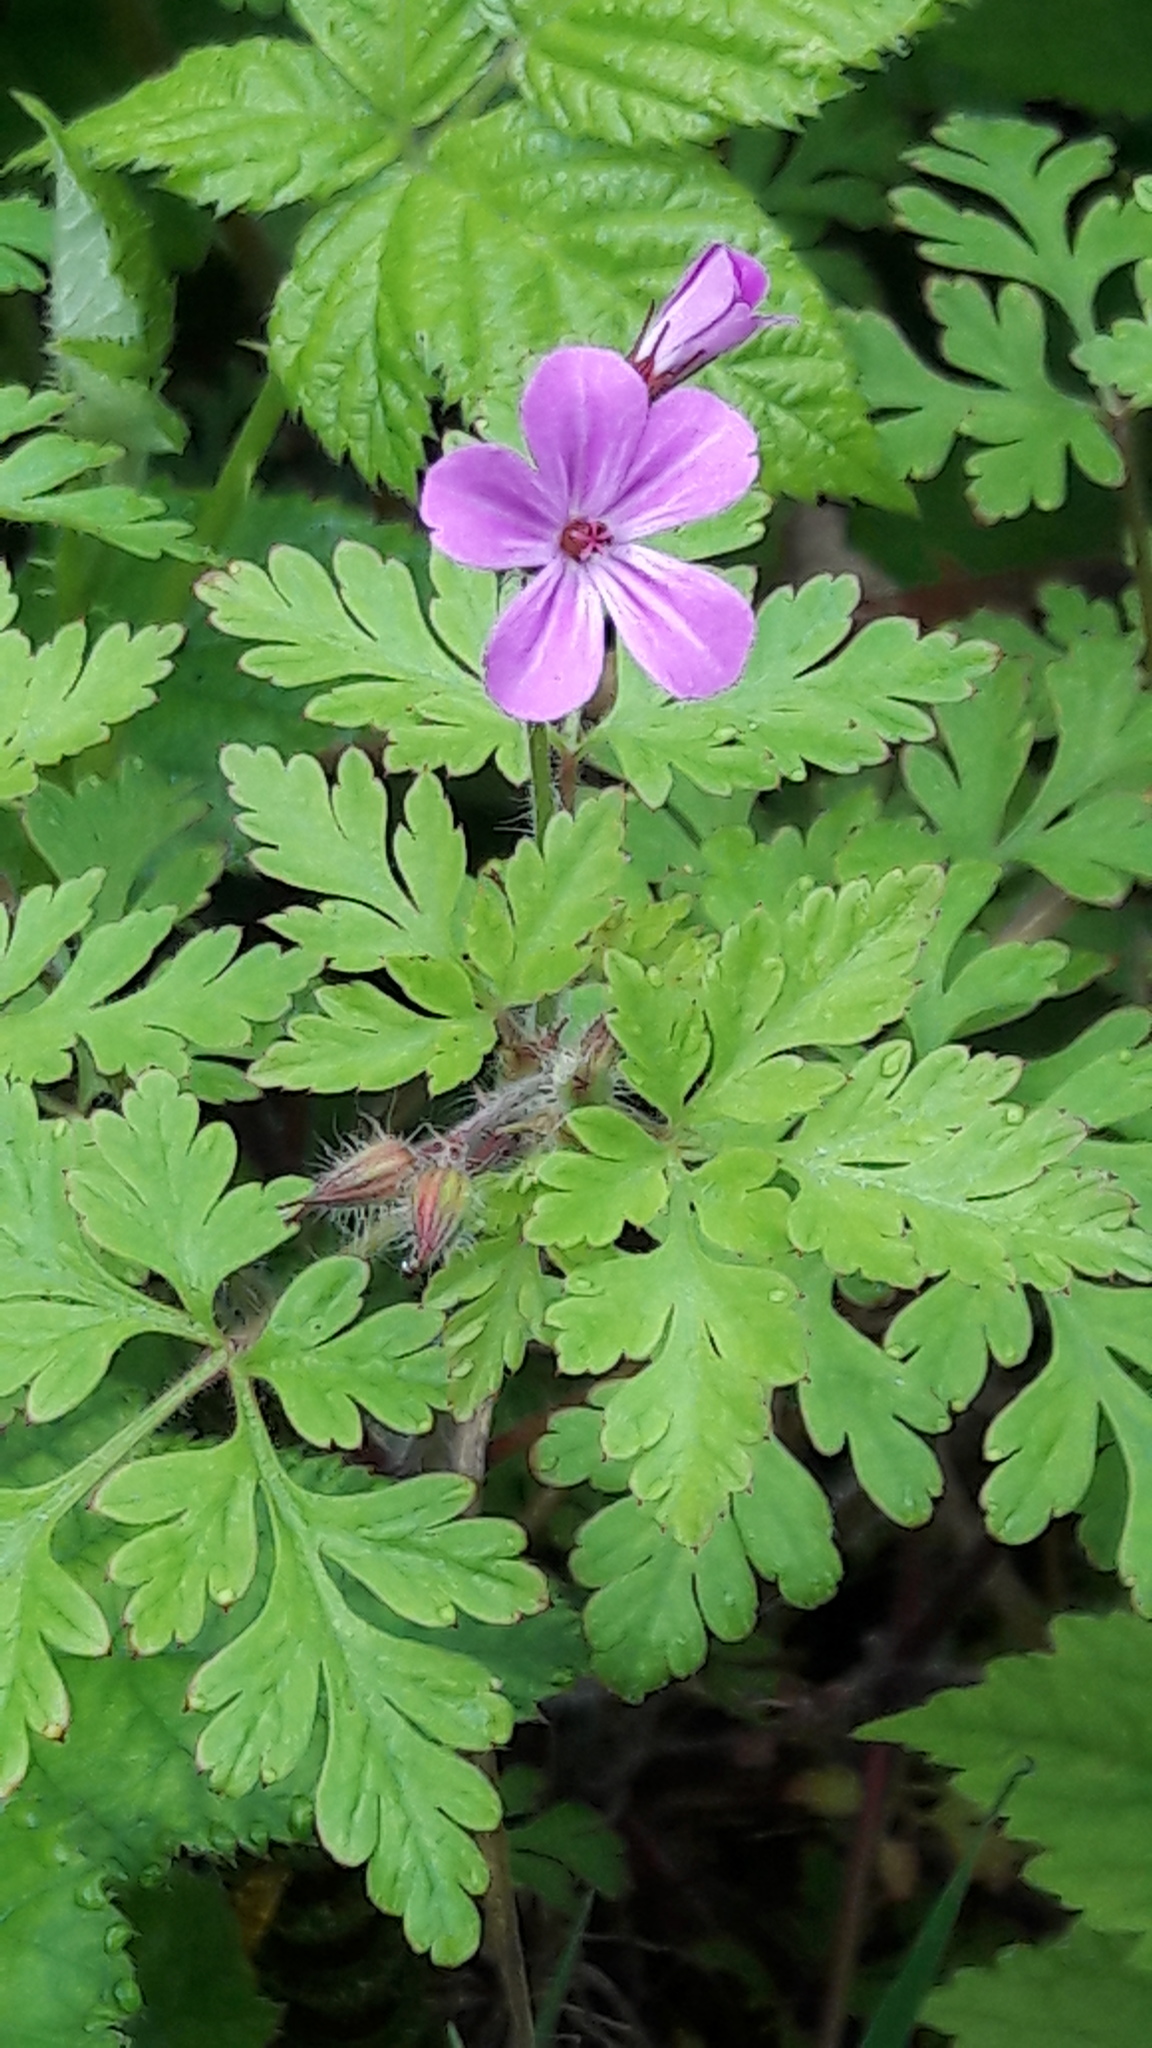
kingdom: Plantae
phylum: Tracheophyta
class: Magnoliopsida
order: Geraniales
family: Geraniaceae
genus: Geranium
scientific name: Geranium robertianum
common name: Herb-robert
